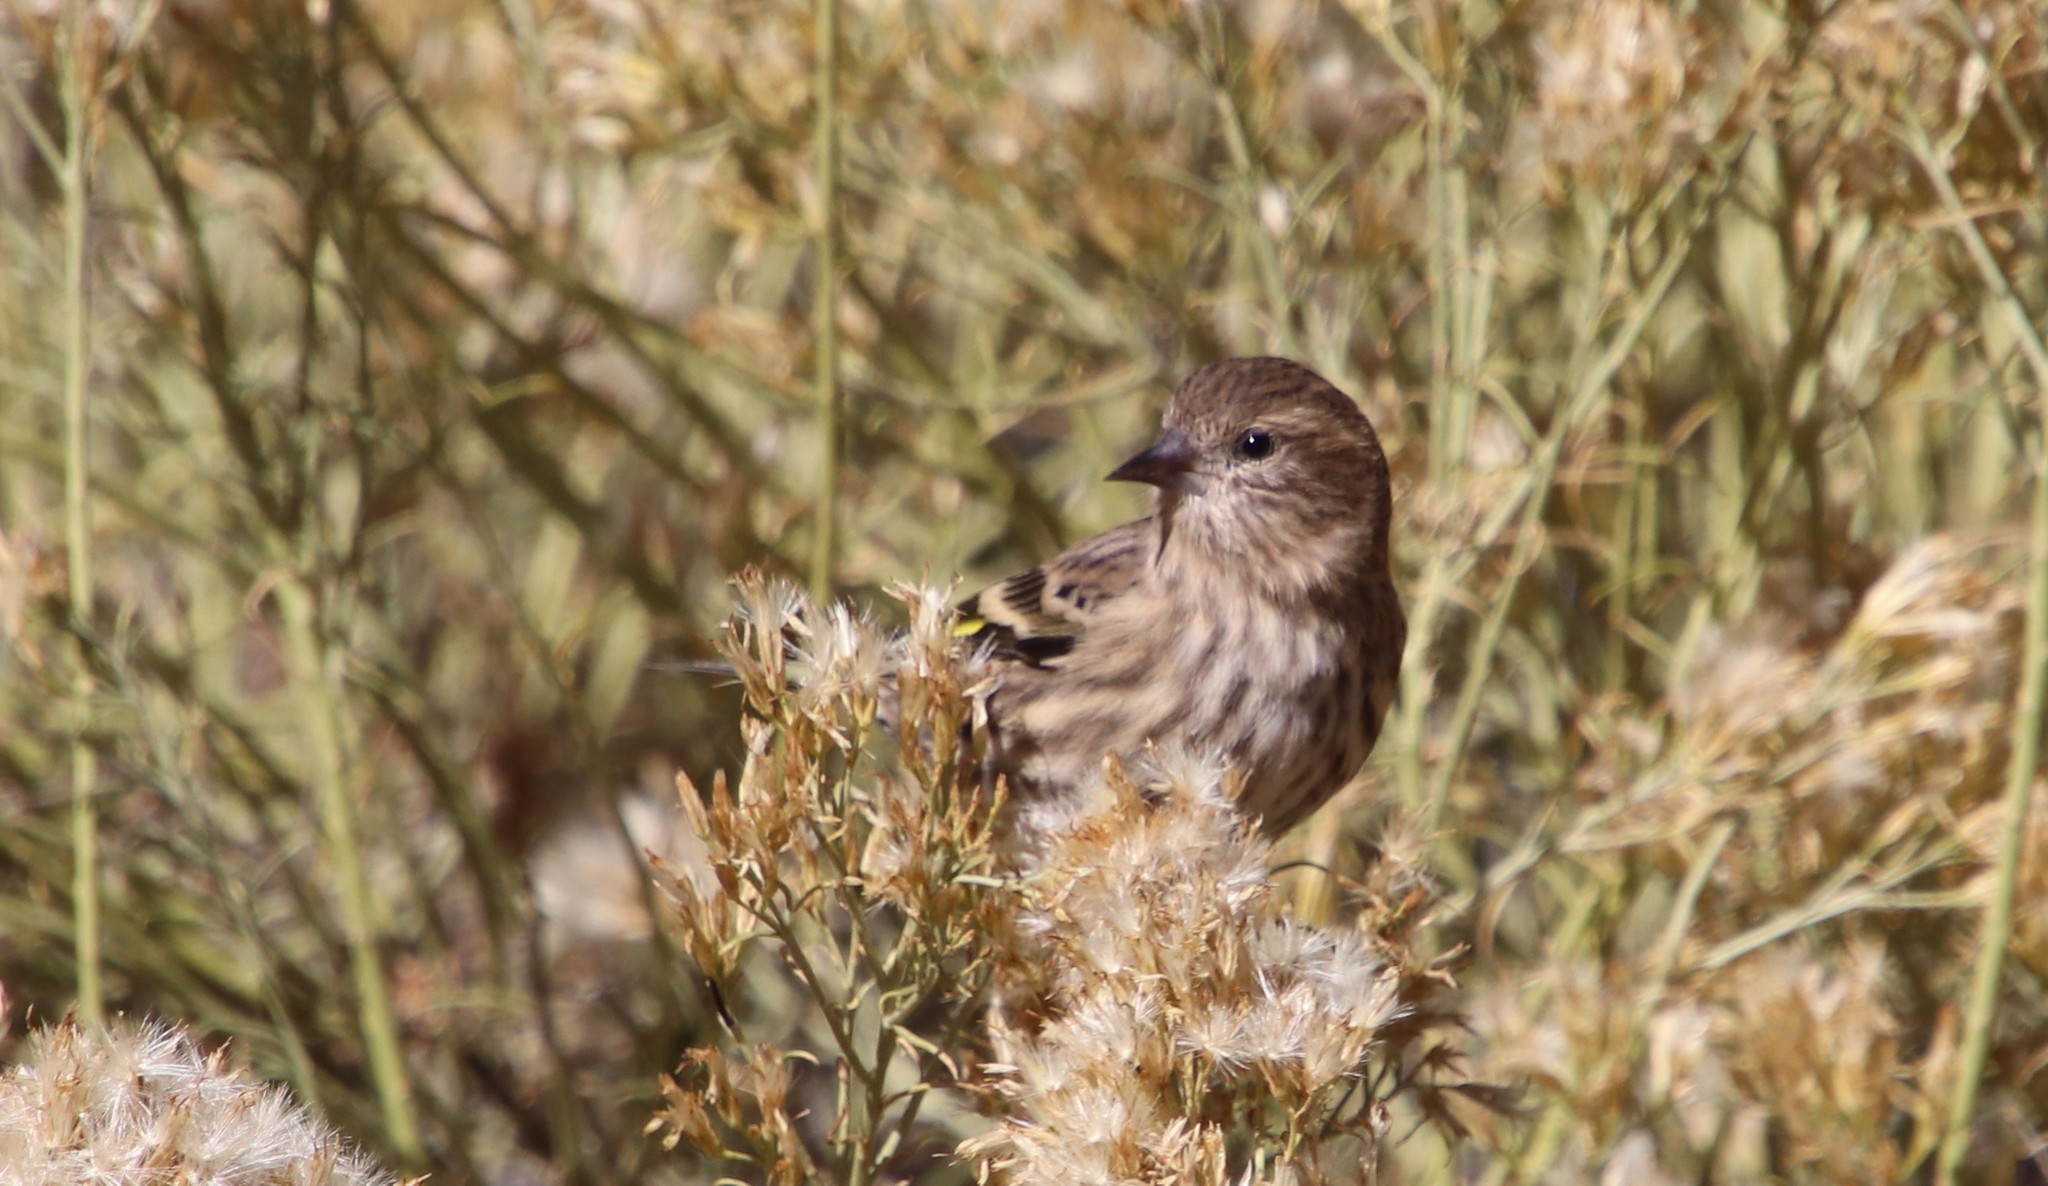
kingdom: Animalia
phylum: Chordata
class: Aves
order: Passeriformes
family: Fringillidae
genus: Spinus
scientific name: Spinus pinus
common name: Pine siskin
